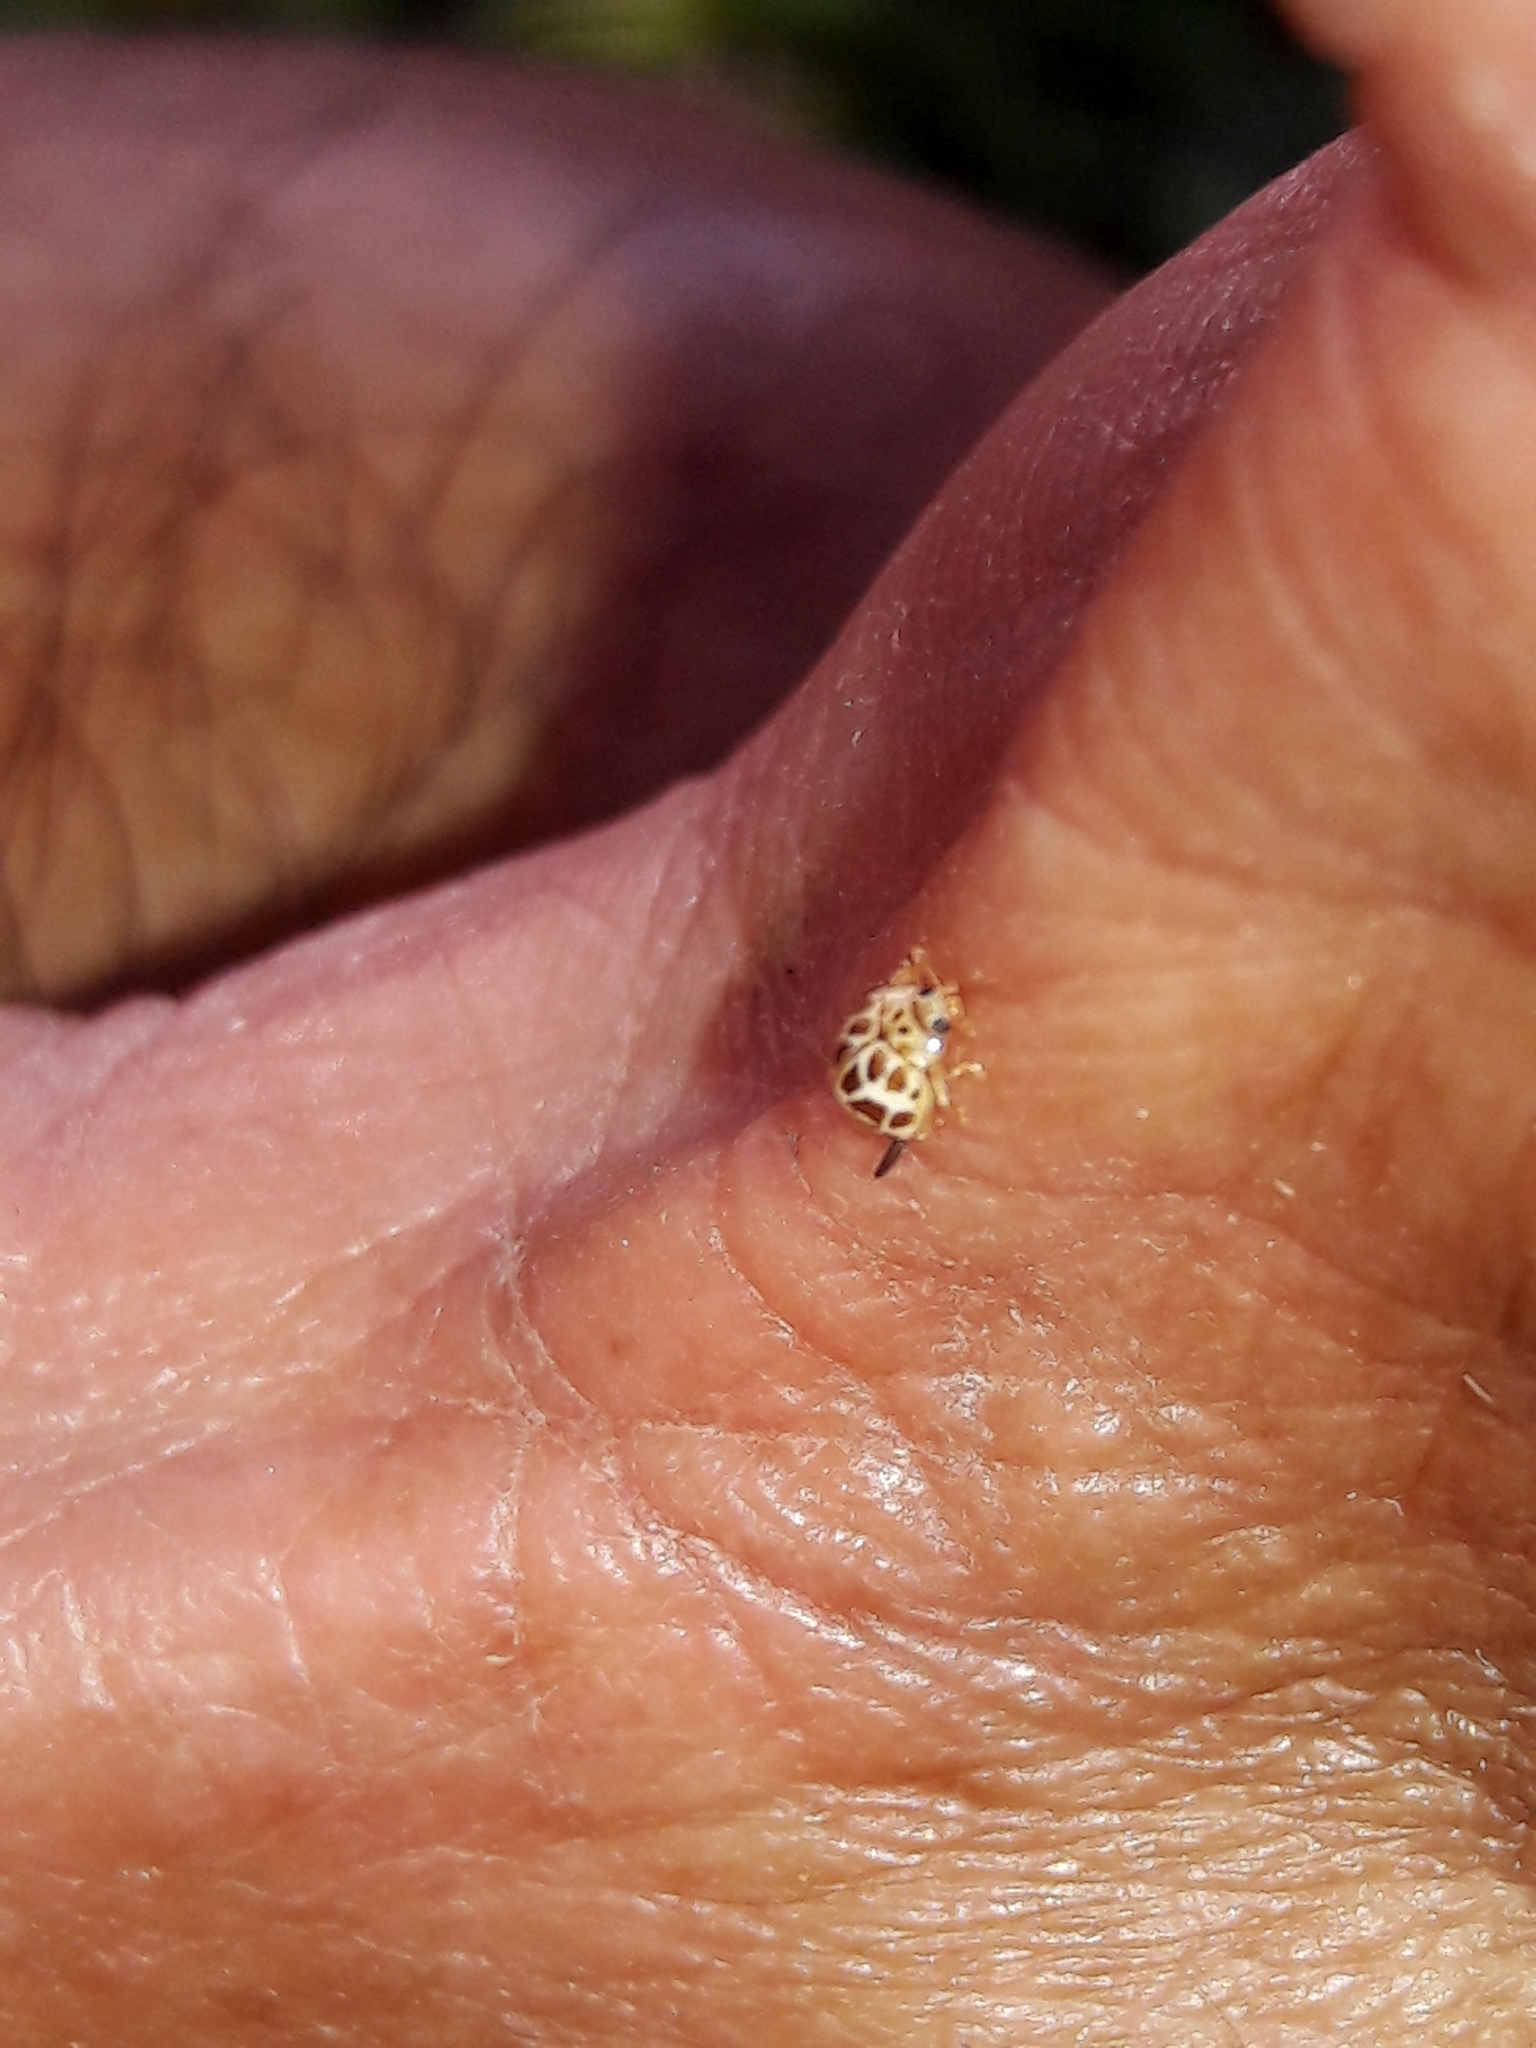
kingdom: Animalia
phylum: Arthropoda
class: Insecta
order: Coleoptera
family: Coccinellidae
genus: Psyllobora
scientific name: Psyllobora
